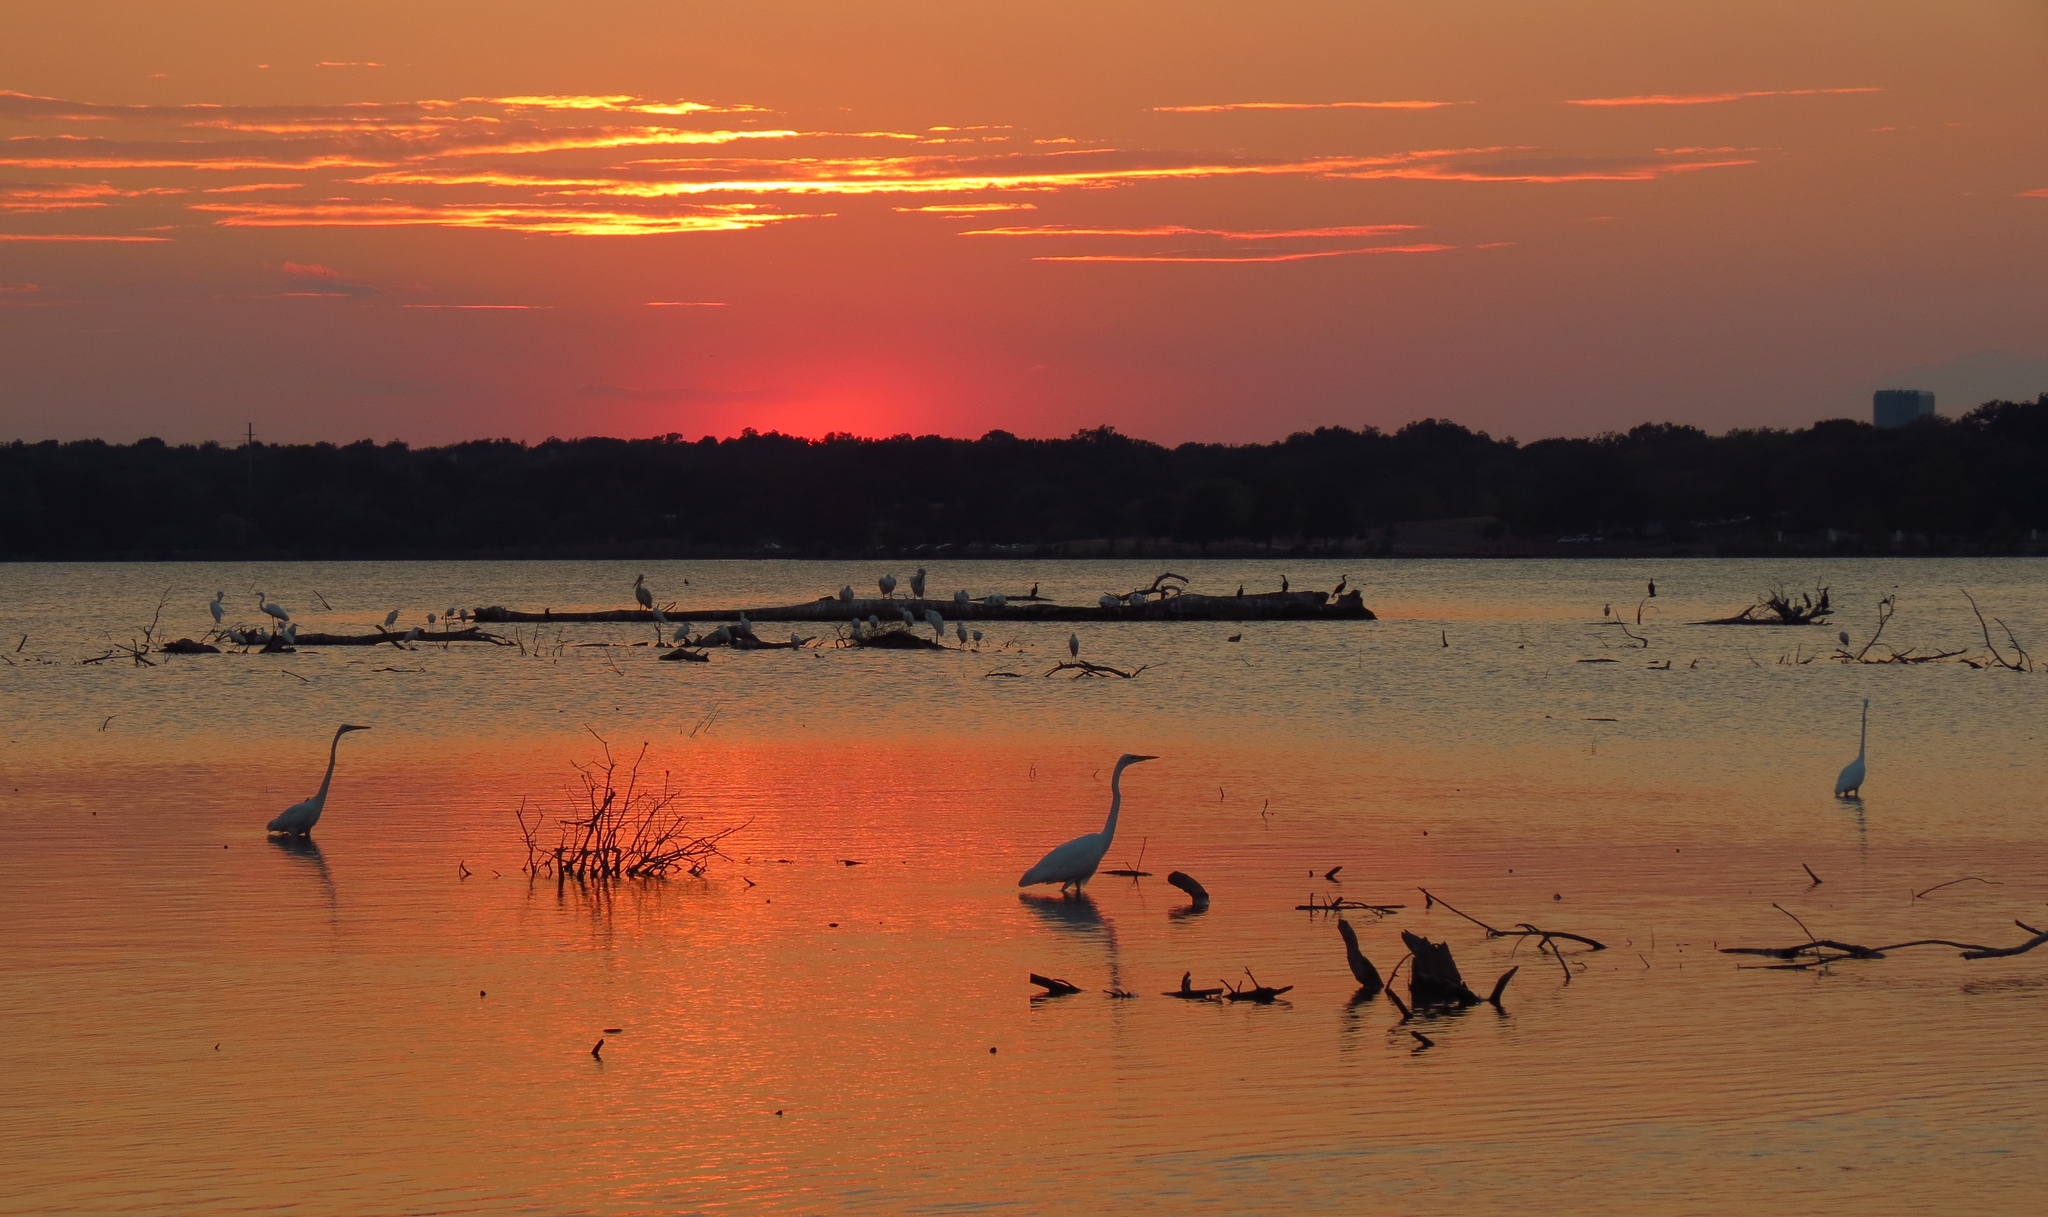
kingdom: Animalia
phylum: Chordata
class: Aves
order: Pelecaniformes
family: Ardeidae
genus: Ardea
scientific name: Ardea alba
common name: Great egret
